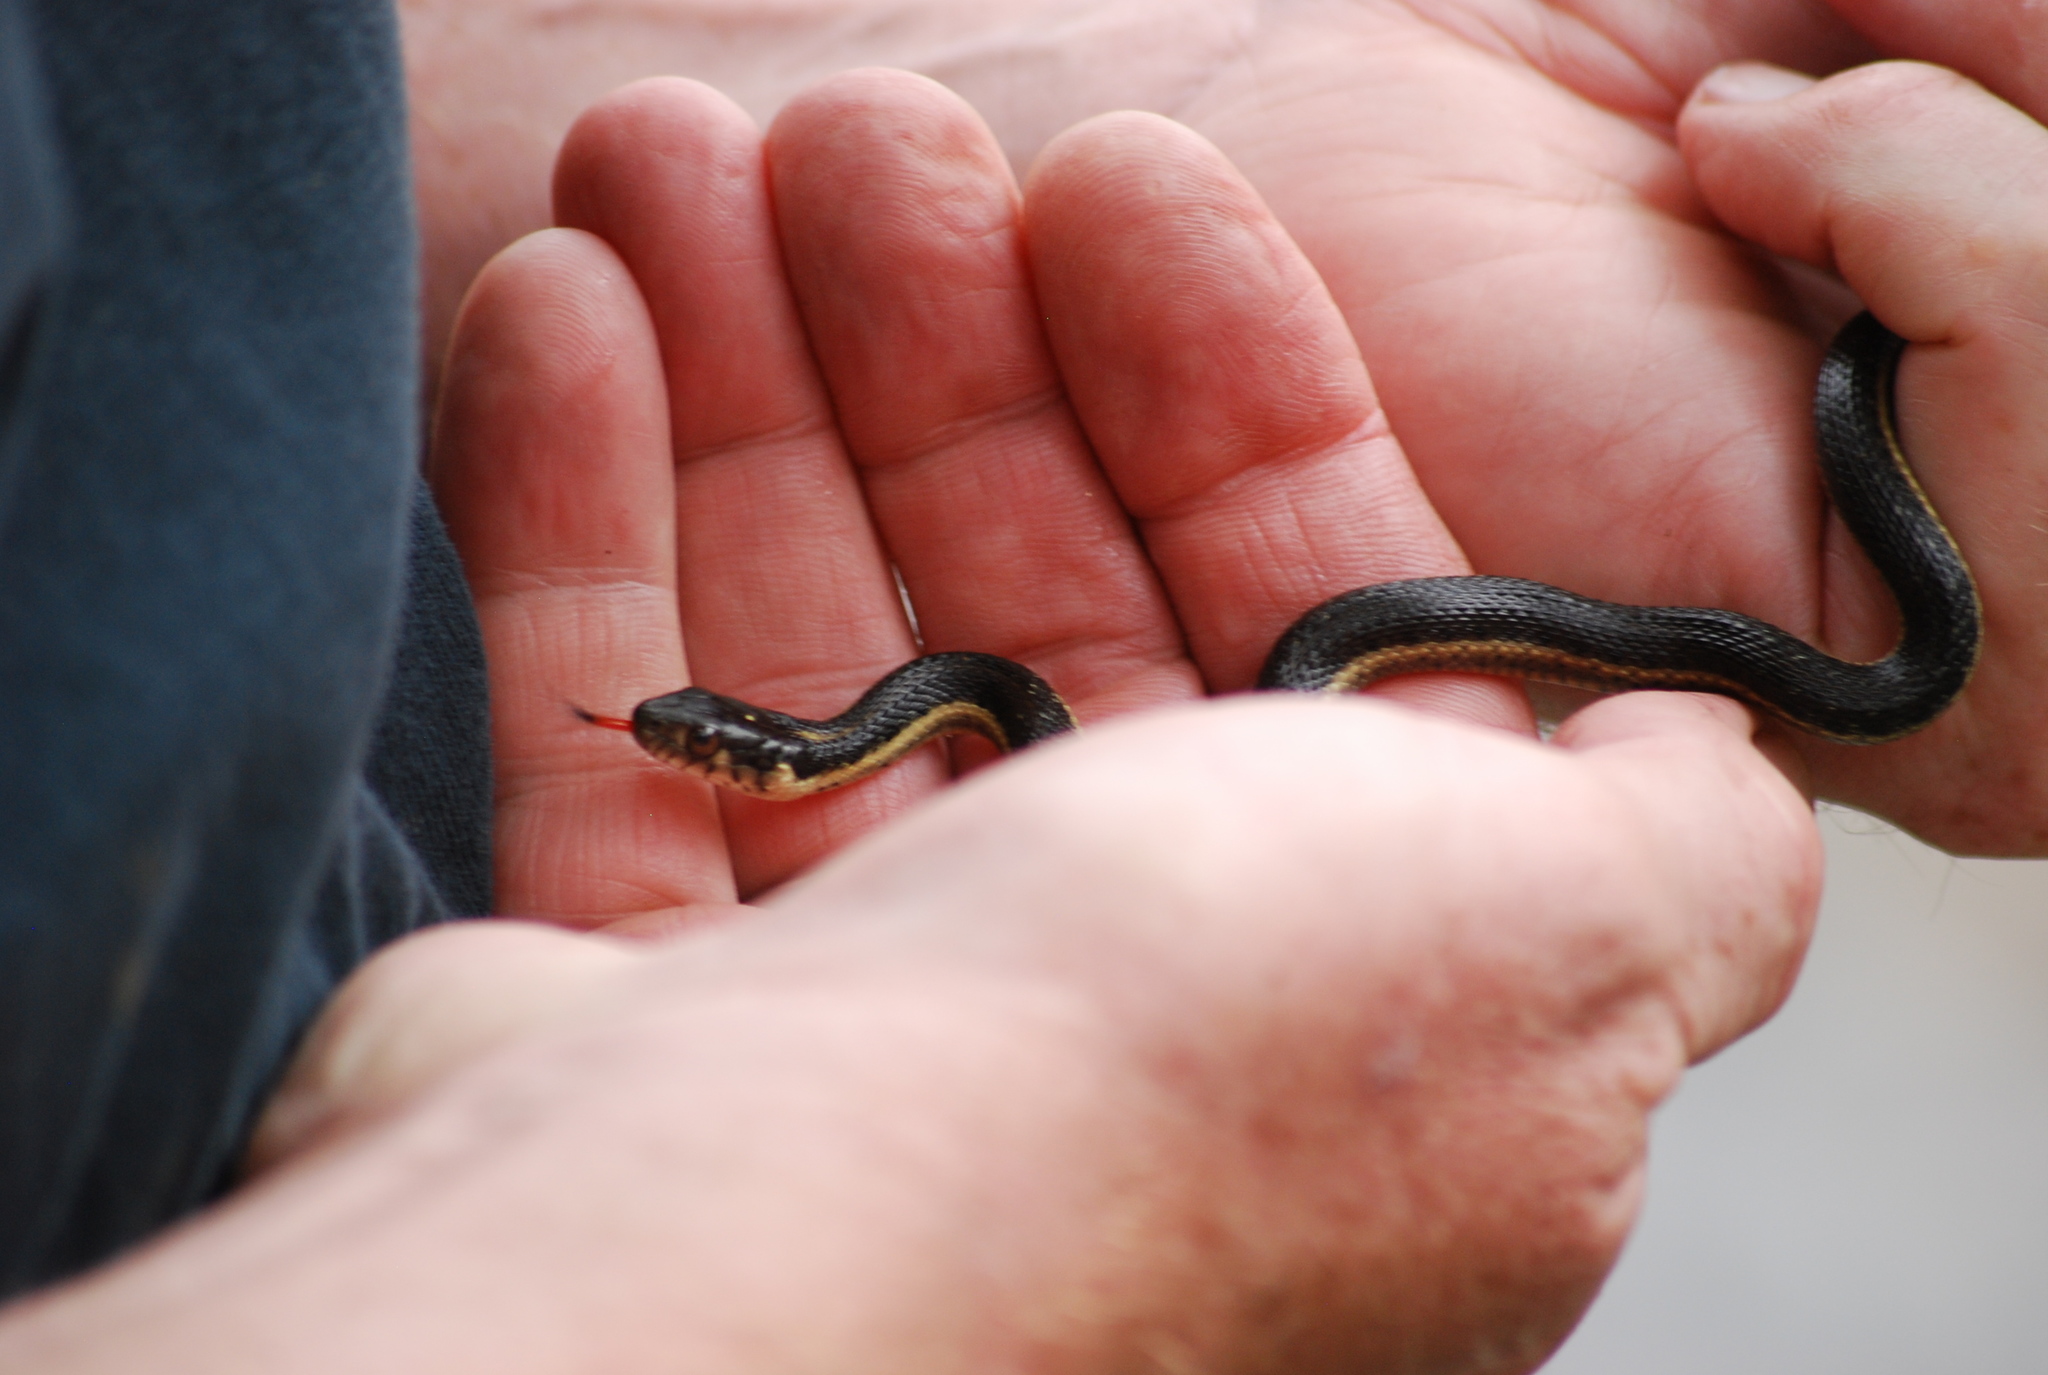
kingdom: Animalia
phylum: Chordata
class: Squamata
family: Colubridae
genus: Thamnophis
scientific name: Thamnophis couchii
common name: Western aquatic garter snake
